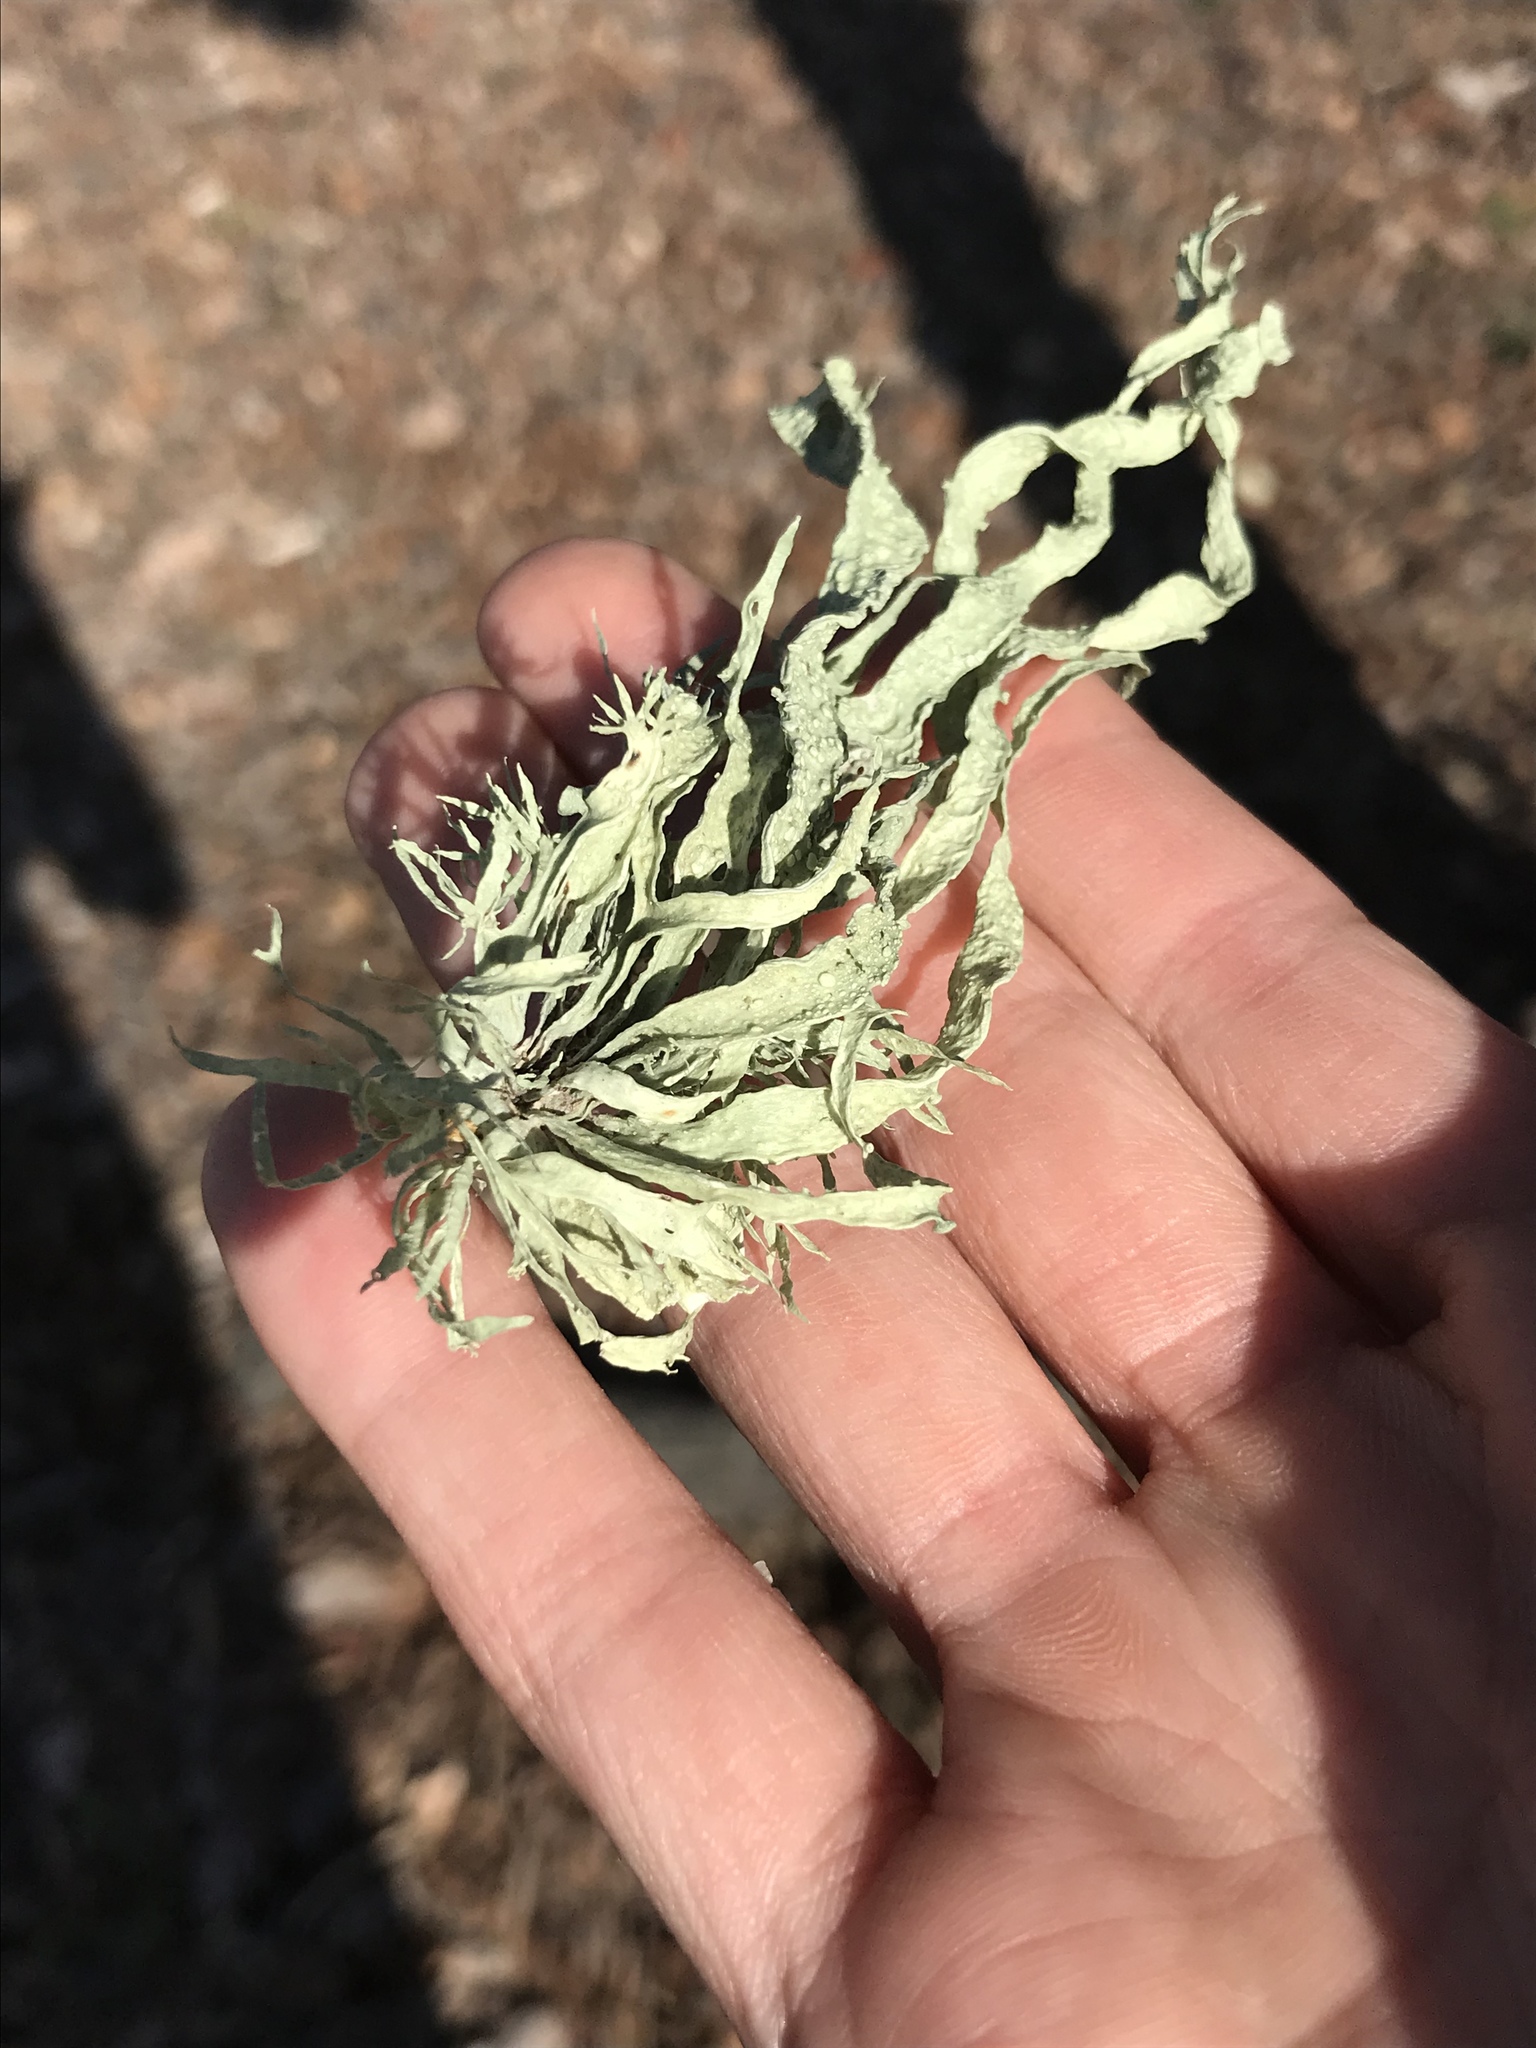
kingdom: Fungi
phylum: Ascomycota
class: Lecanoromycetes
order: Lecanorales
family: Ramalinaceae
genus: Ramalina
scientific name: Ramalina leptocarpha
